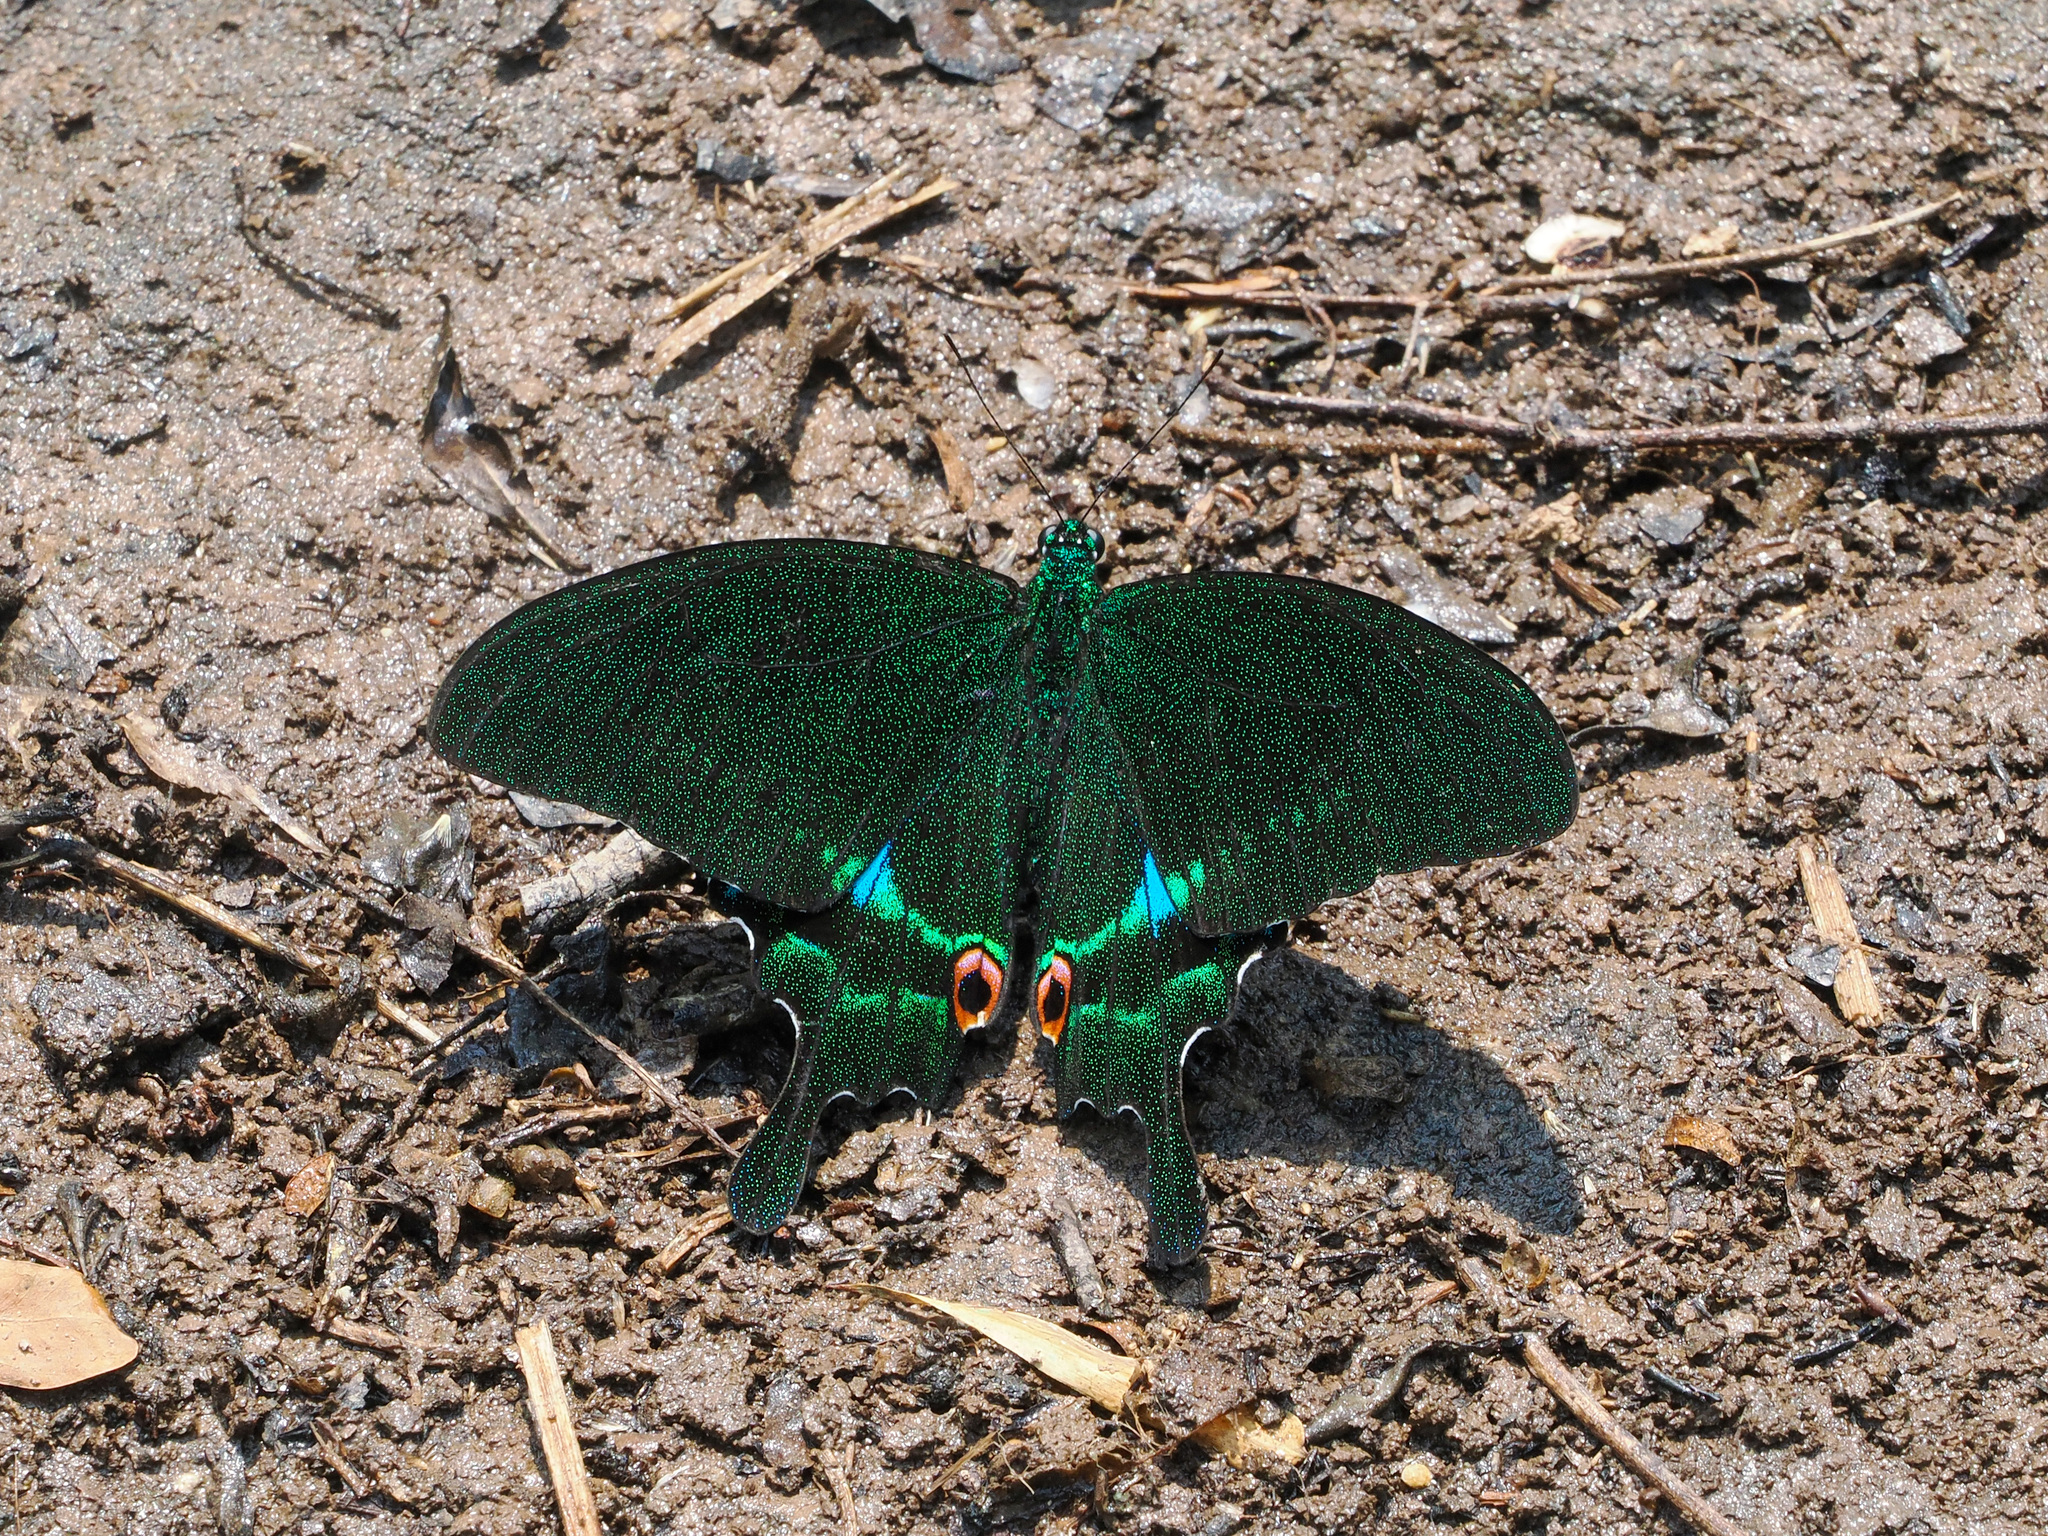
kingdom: Animalia
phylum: Arthropoda
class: Insecta
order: Lepidoptera
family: Papilionidae
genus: Papilio
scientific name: Papilio paris
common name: Paris peacock
